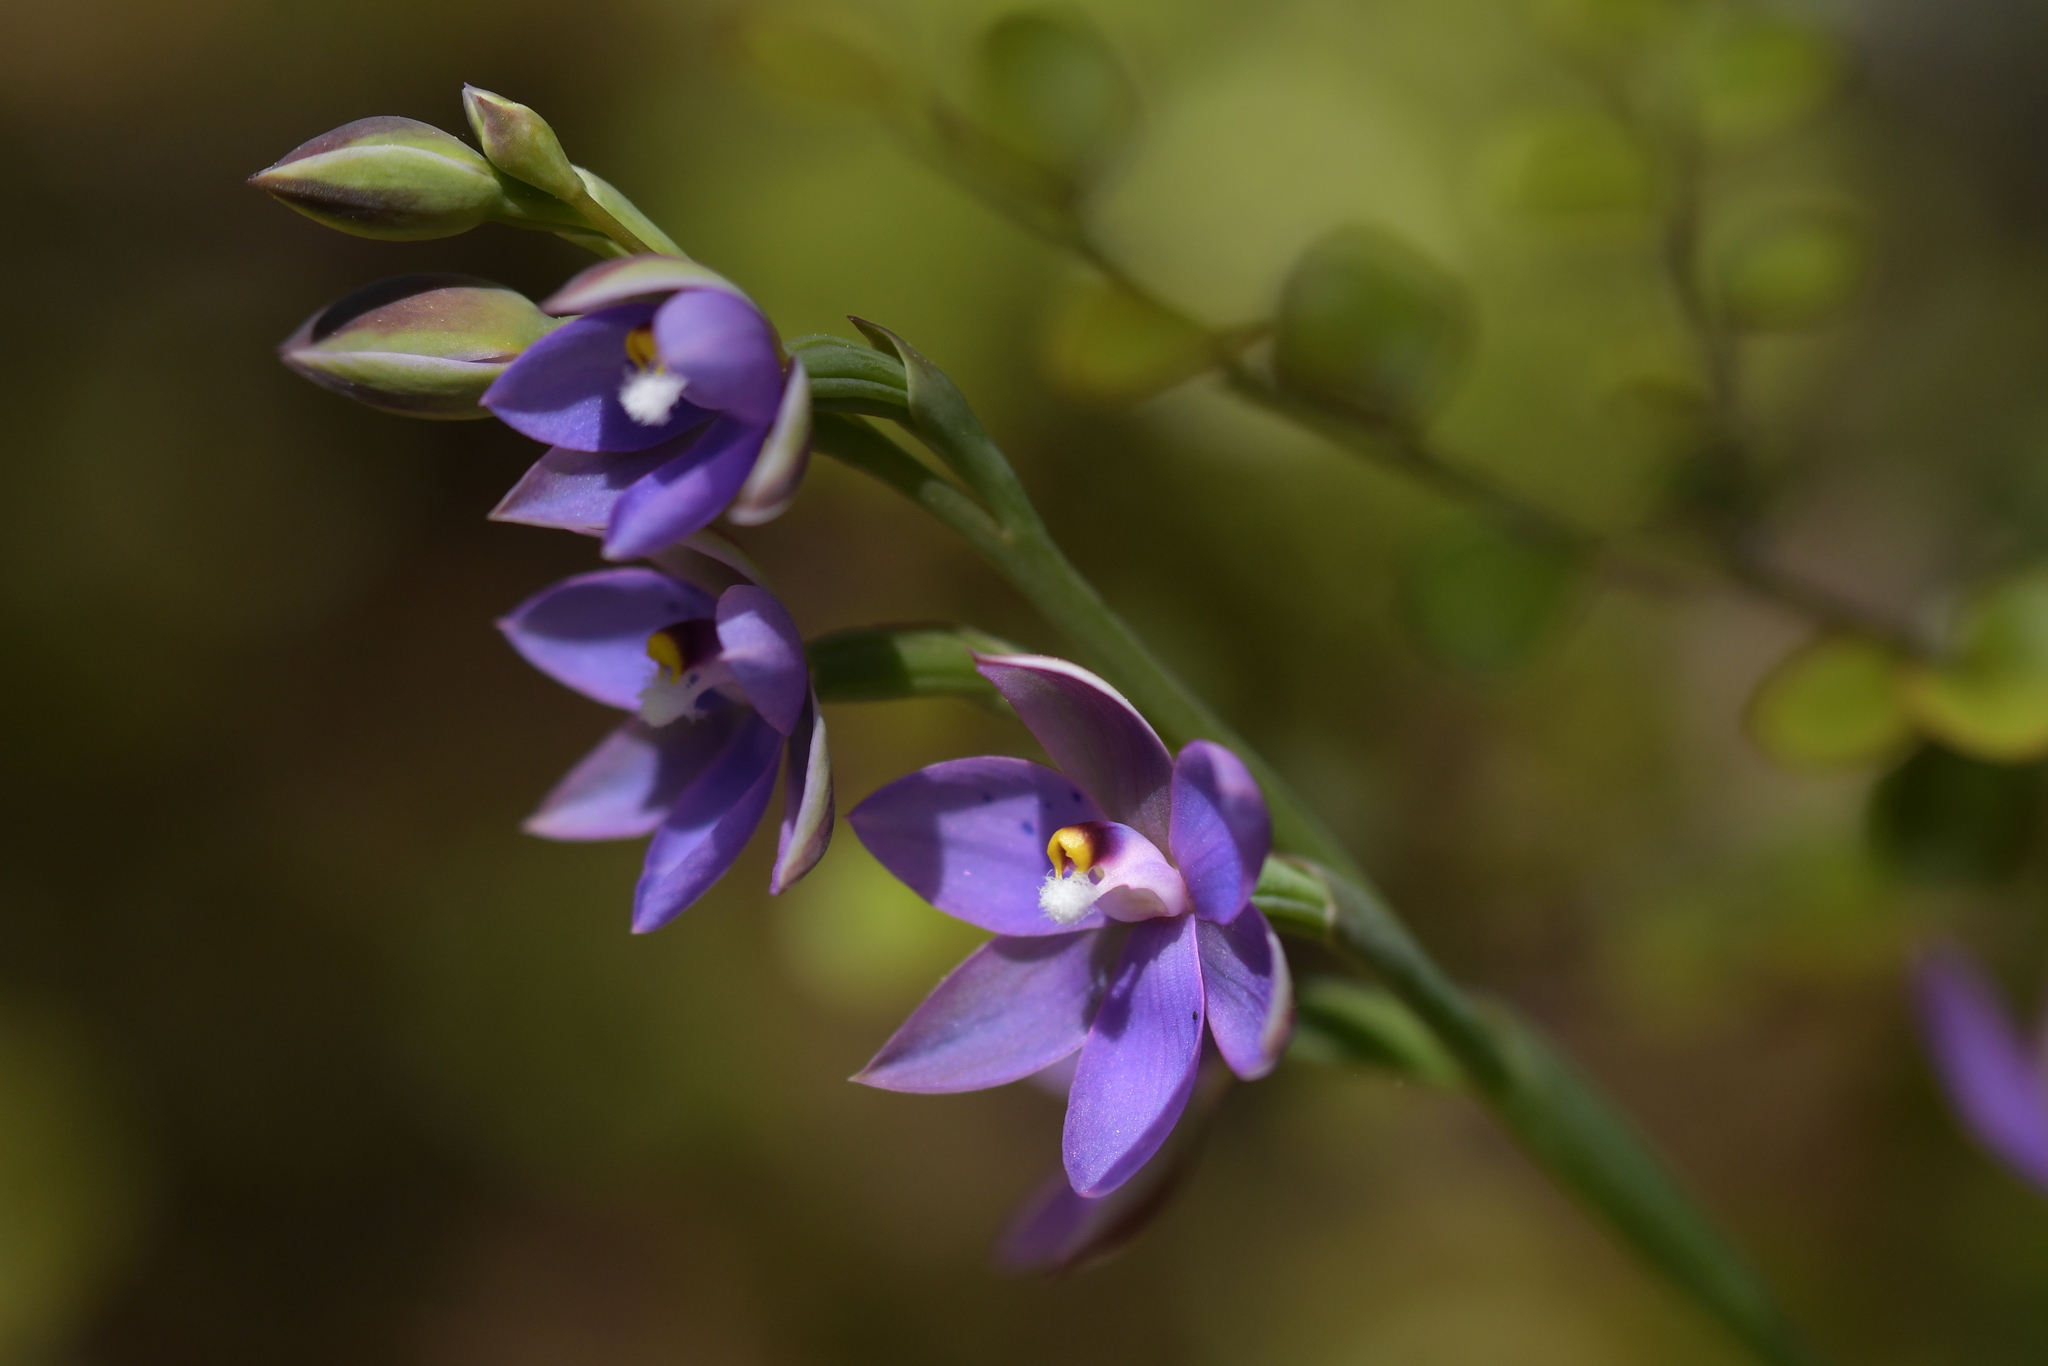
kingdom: Plantae
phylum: Tracheophyta
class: Liliopsida
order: Asparagales
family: Orchidaceae
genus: Thelymitra
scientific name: Thelymitra nervosa
